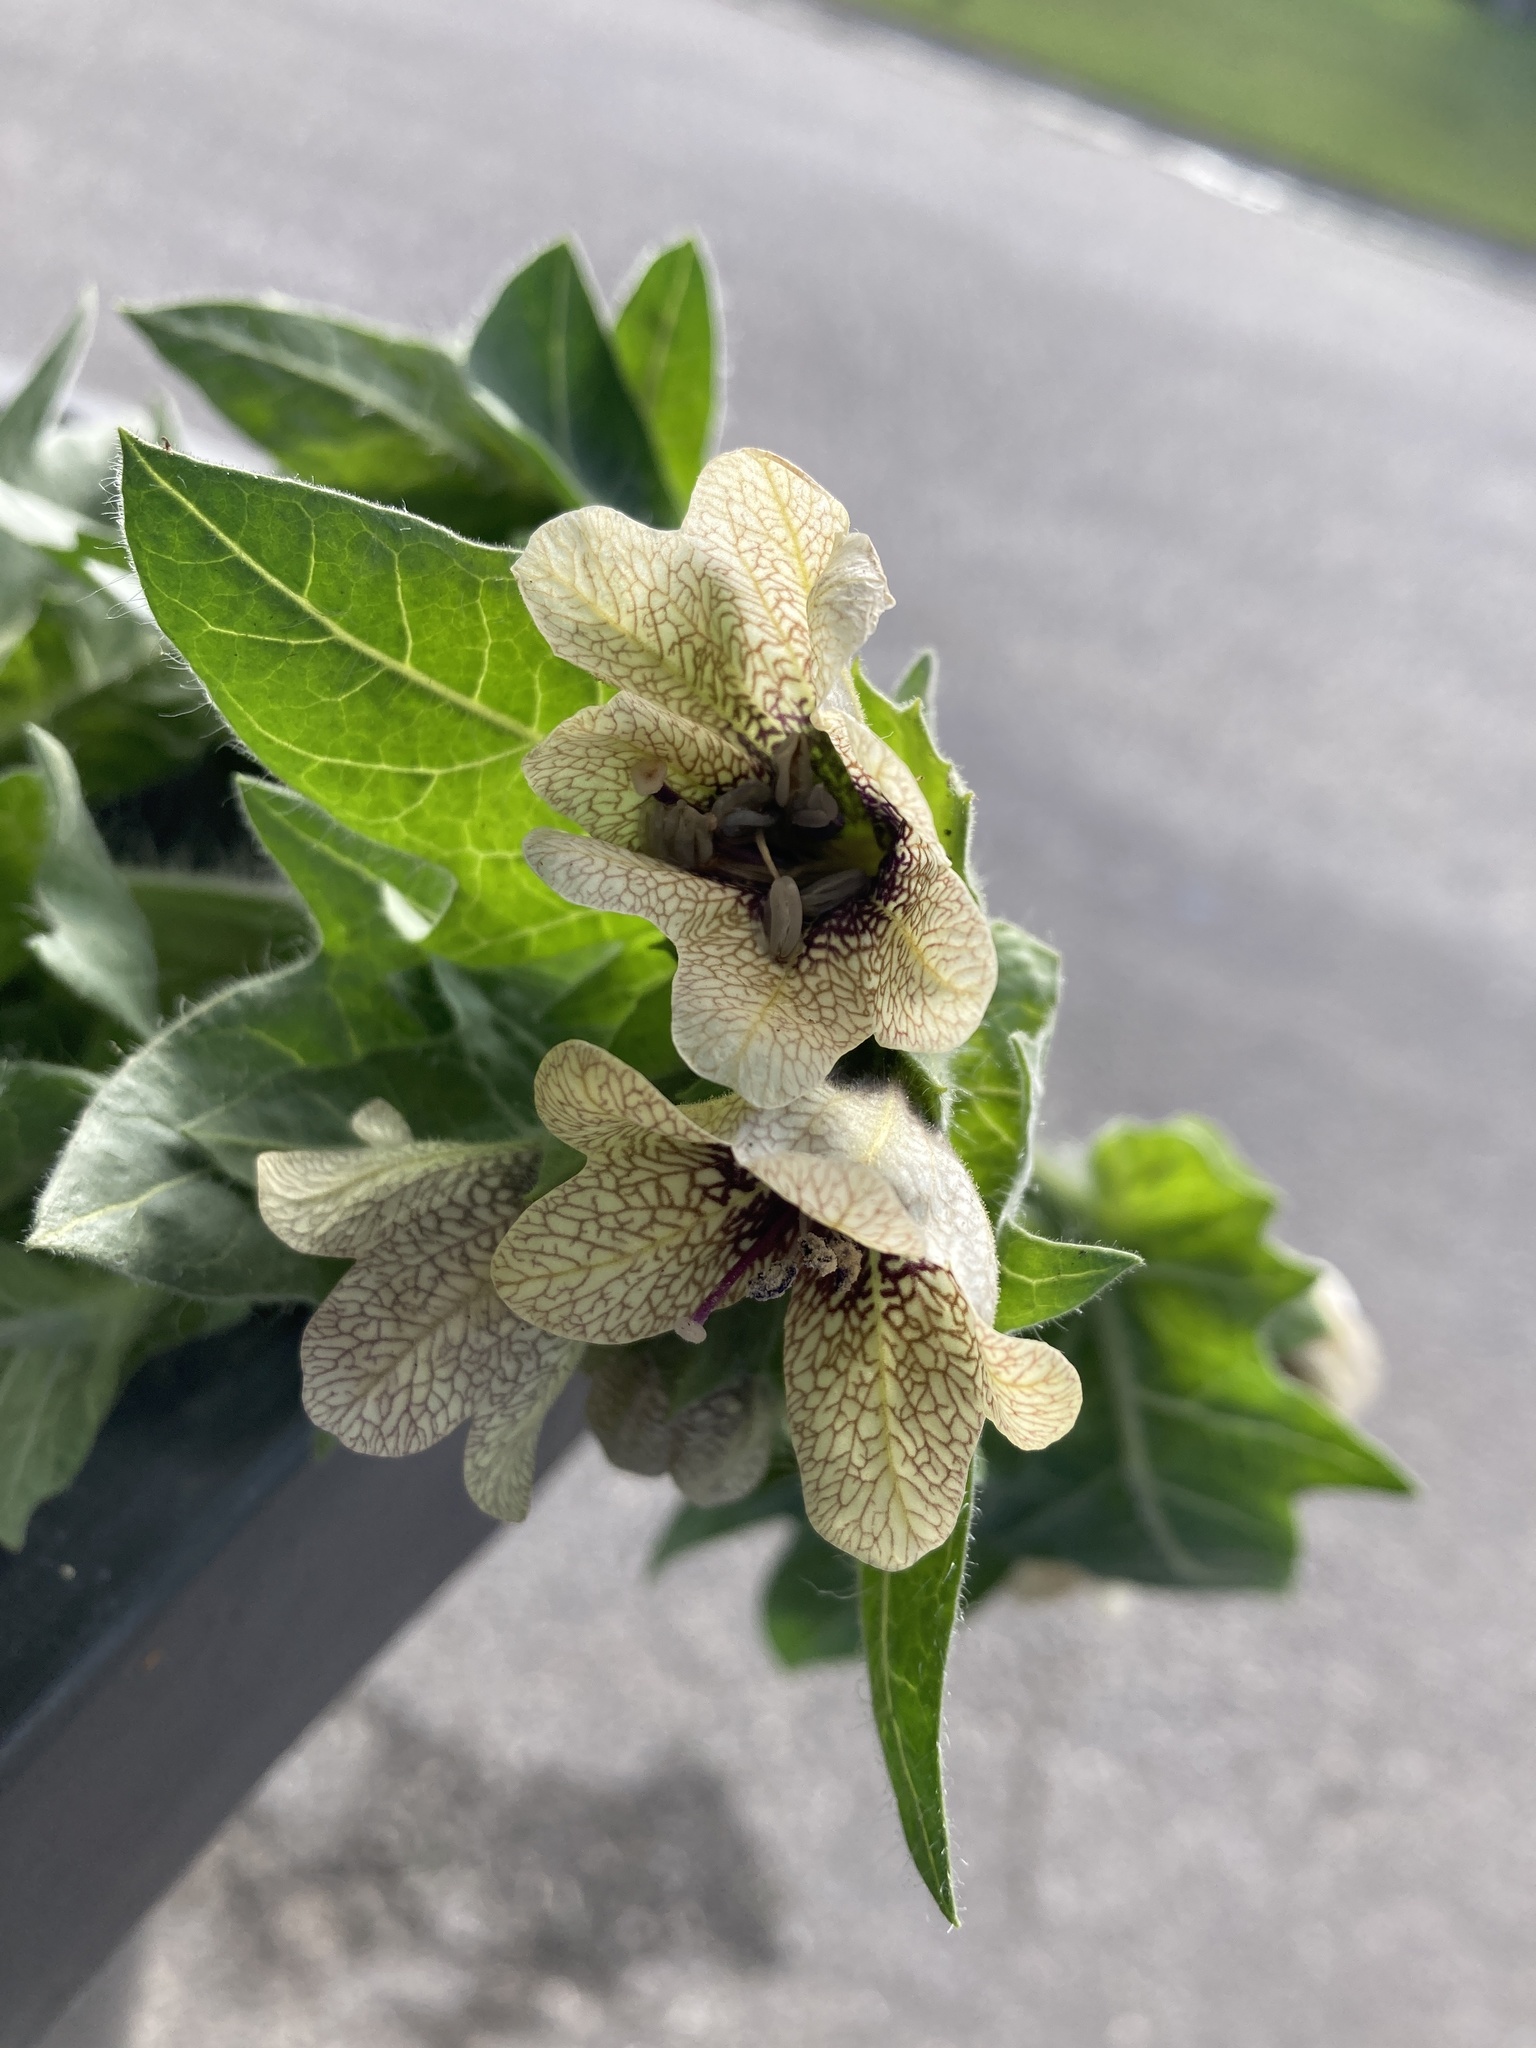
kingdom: Plantae
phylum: Tracheophyta
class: Magnoliopsida
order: Solanales
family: Solanaceae
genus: Hyoscyamus
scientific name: Hyoscyamus niger
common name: Henbane
